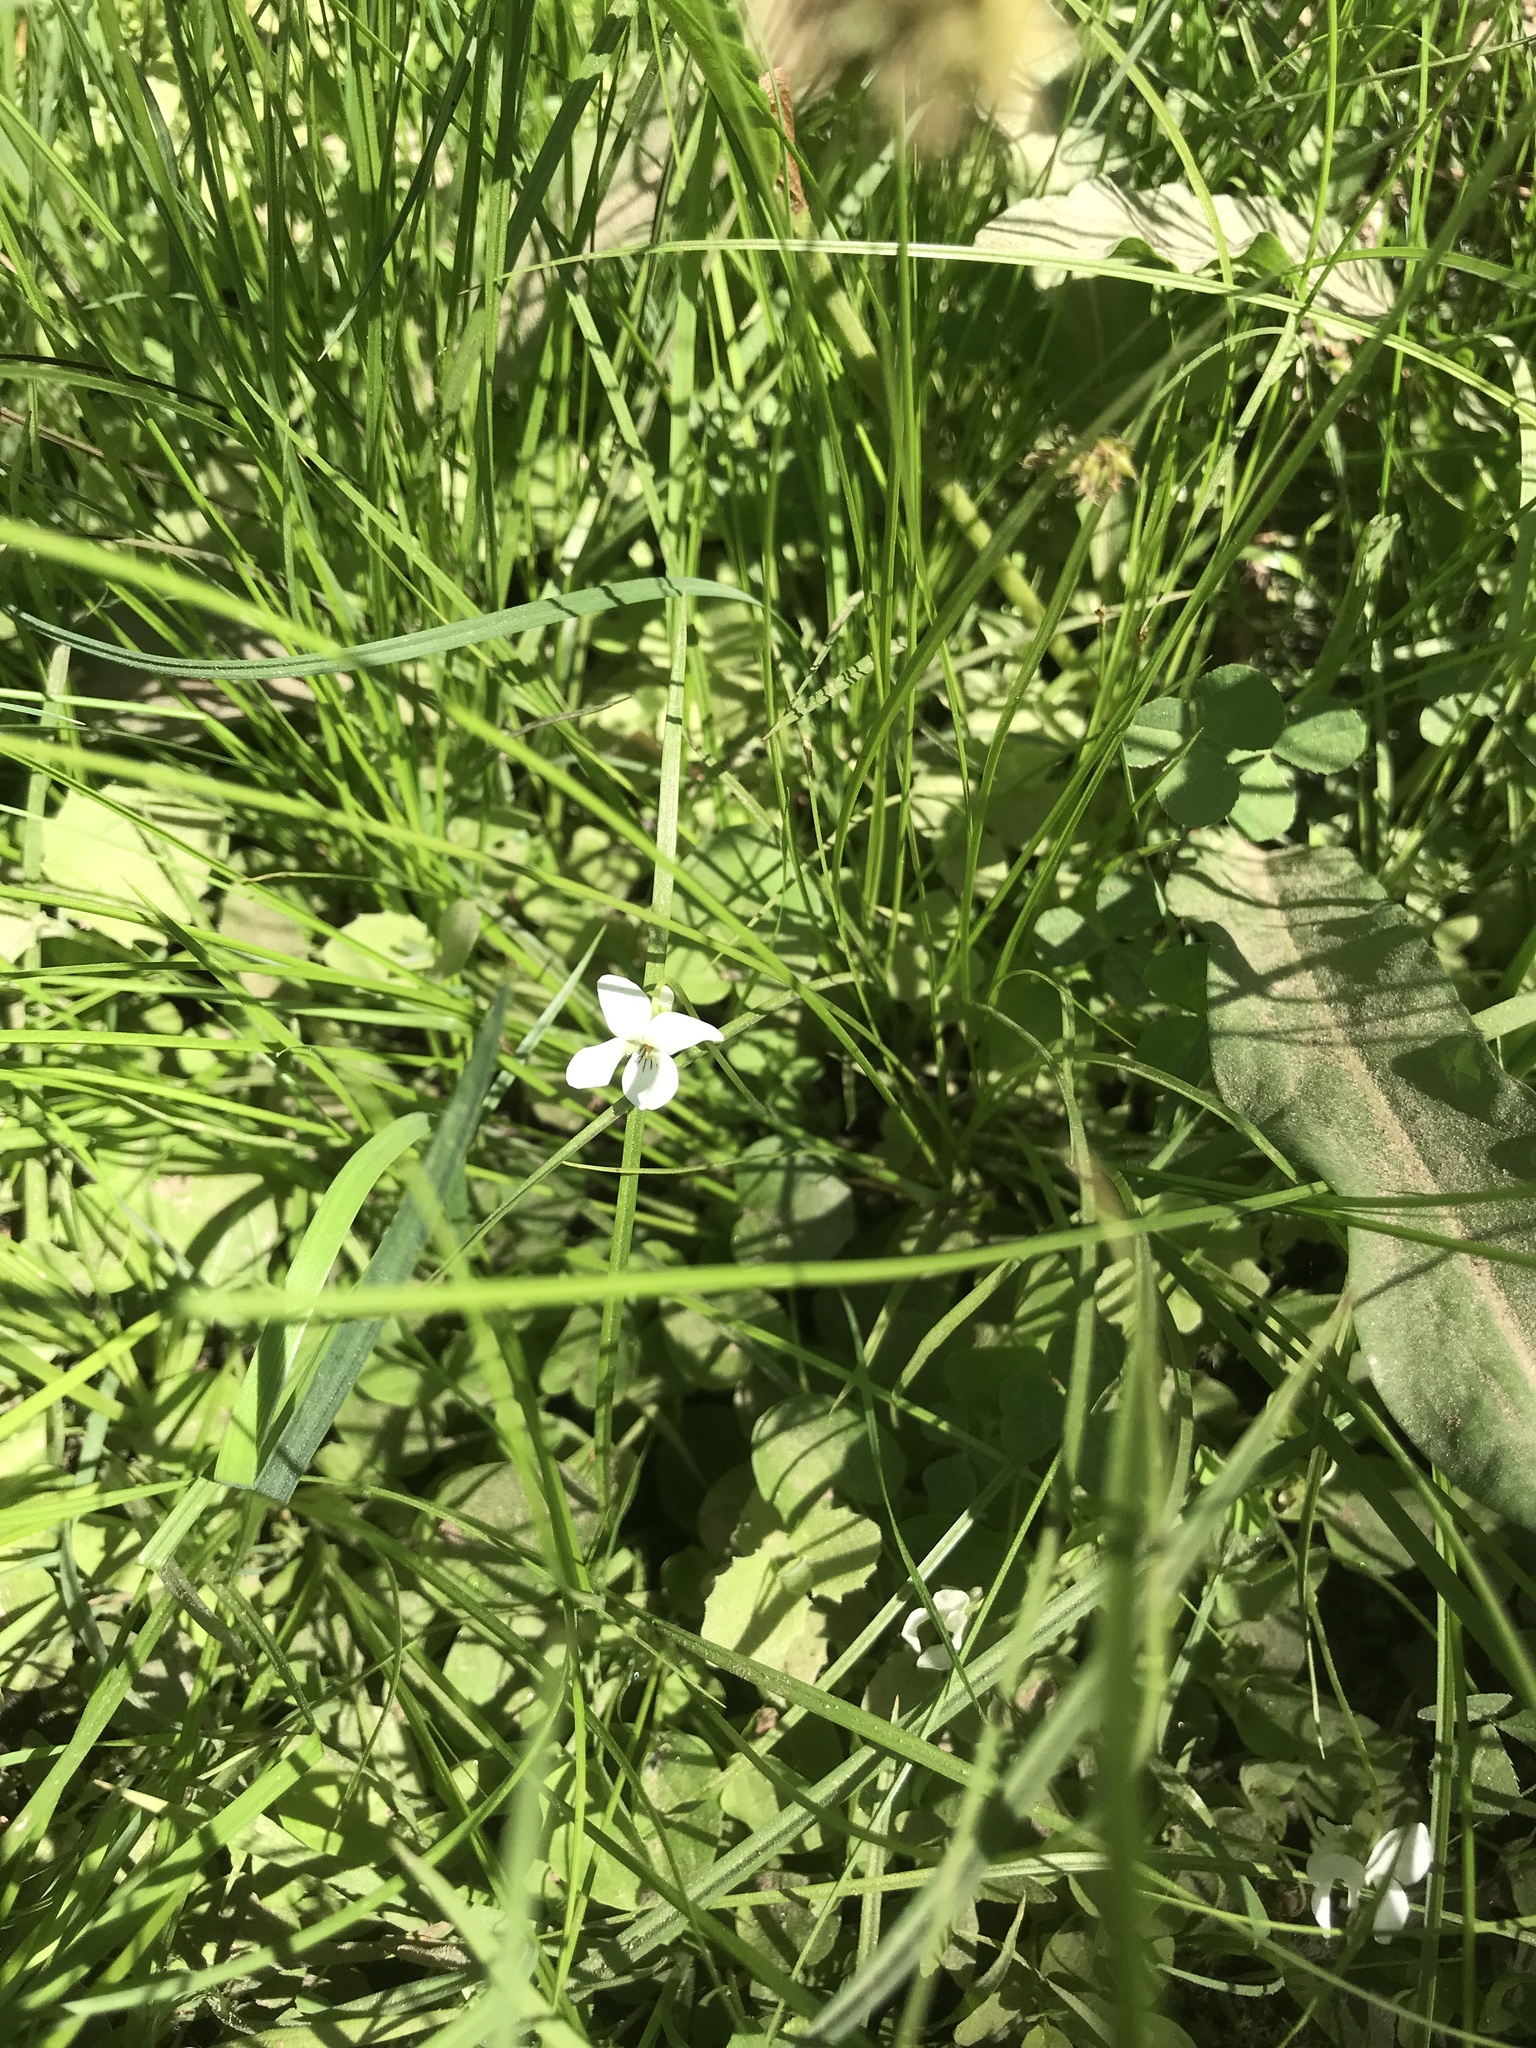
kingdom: Plantae
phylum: Tracheophyta
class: Magnoliopsida
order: Malpighiales
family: Violaceae
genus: Viola
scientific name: Viola macloskeyi
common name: Macloskey's violet
